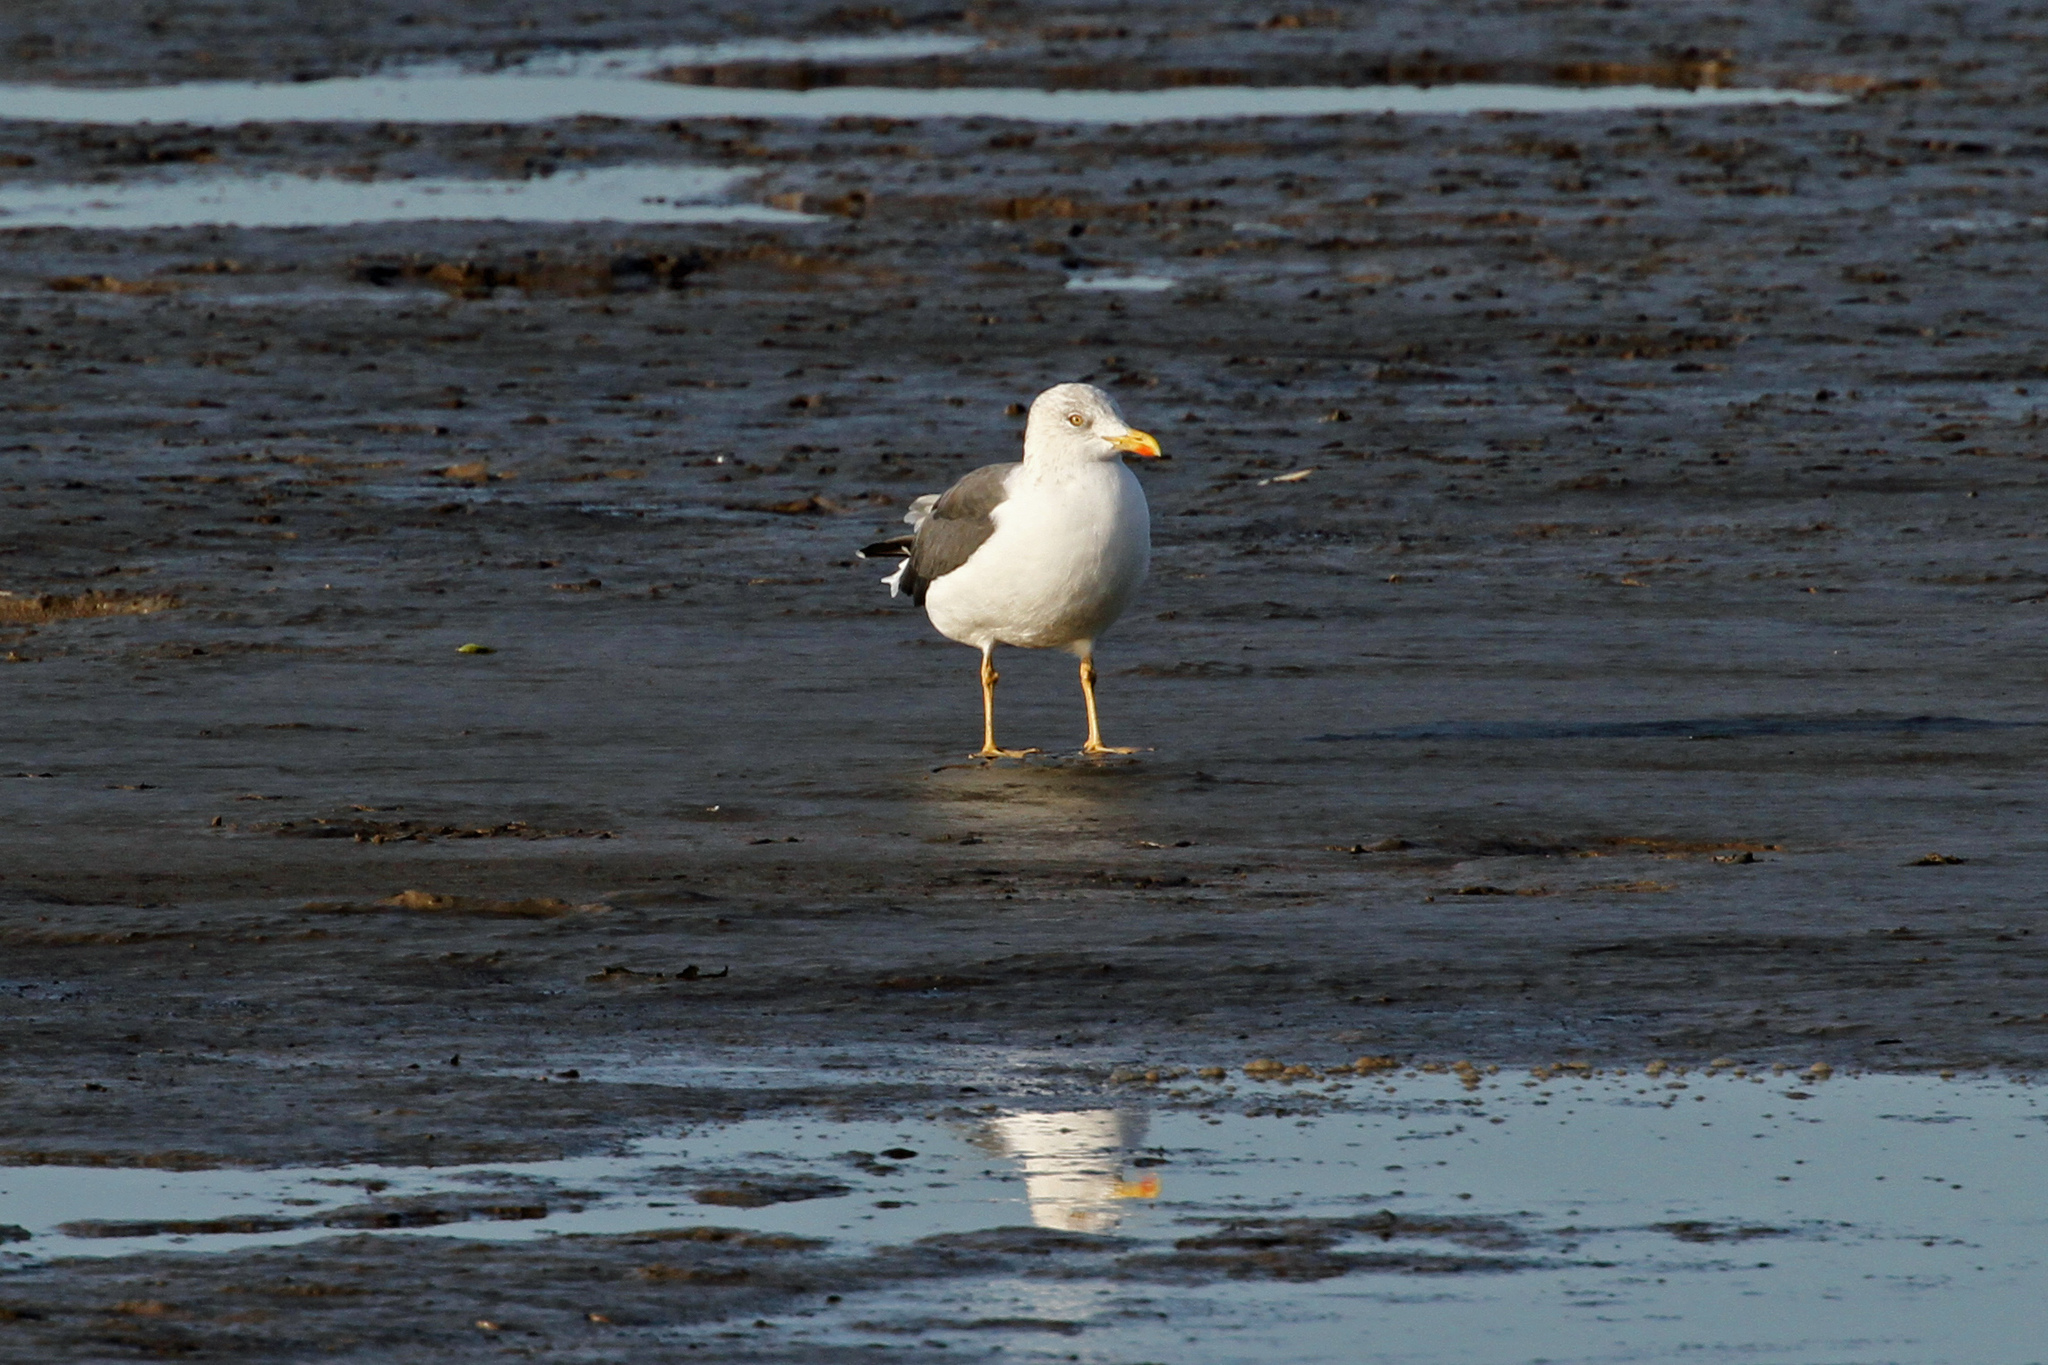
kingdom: Animalia
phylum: Chordata
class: Aves
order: Charadriiformes
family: Laridae
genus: Larus
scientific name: Larus fuscus
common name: Lesser black-backed gull
